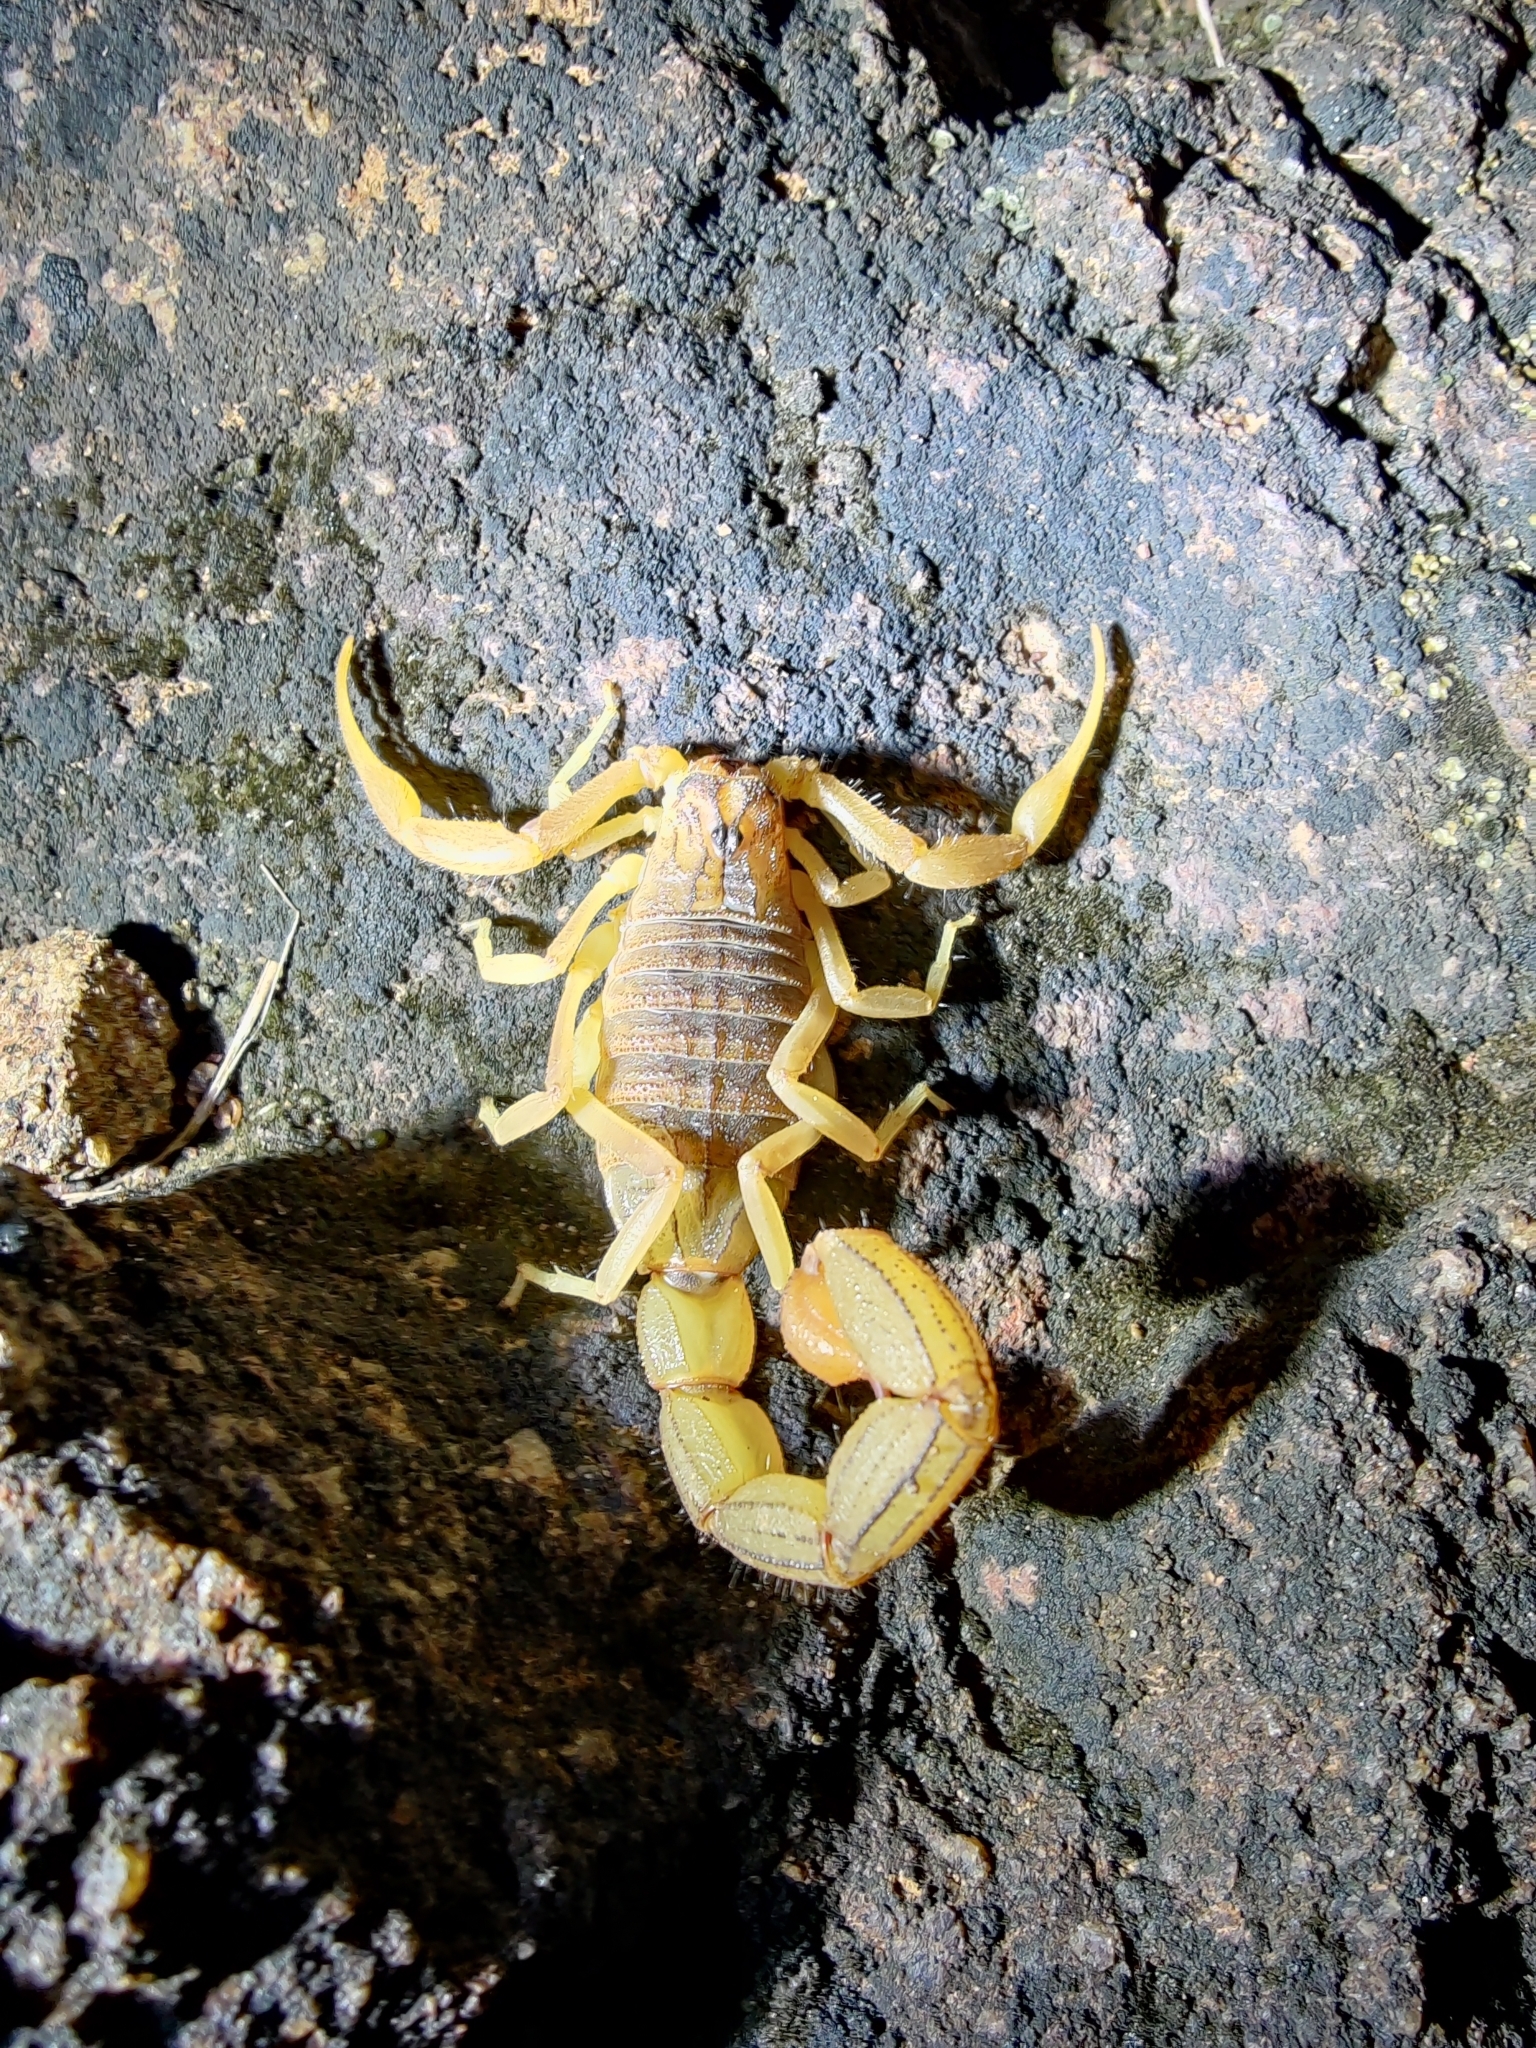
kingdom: Animalia
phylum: Arthropoda
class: Arachnida
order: Scorpiones
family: Buthidae
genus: Hottentotta
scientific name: Hottentotta tamulus
